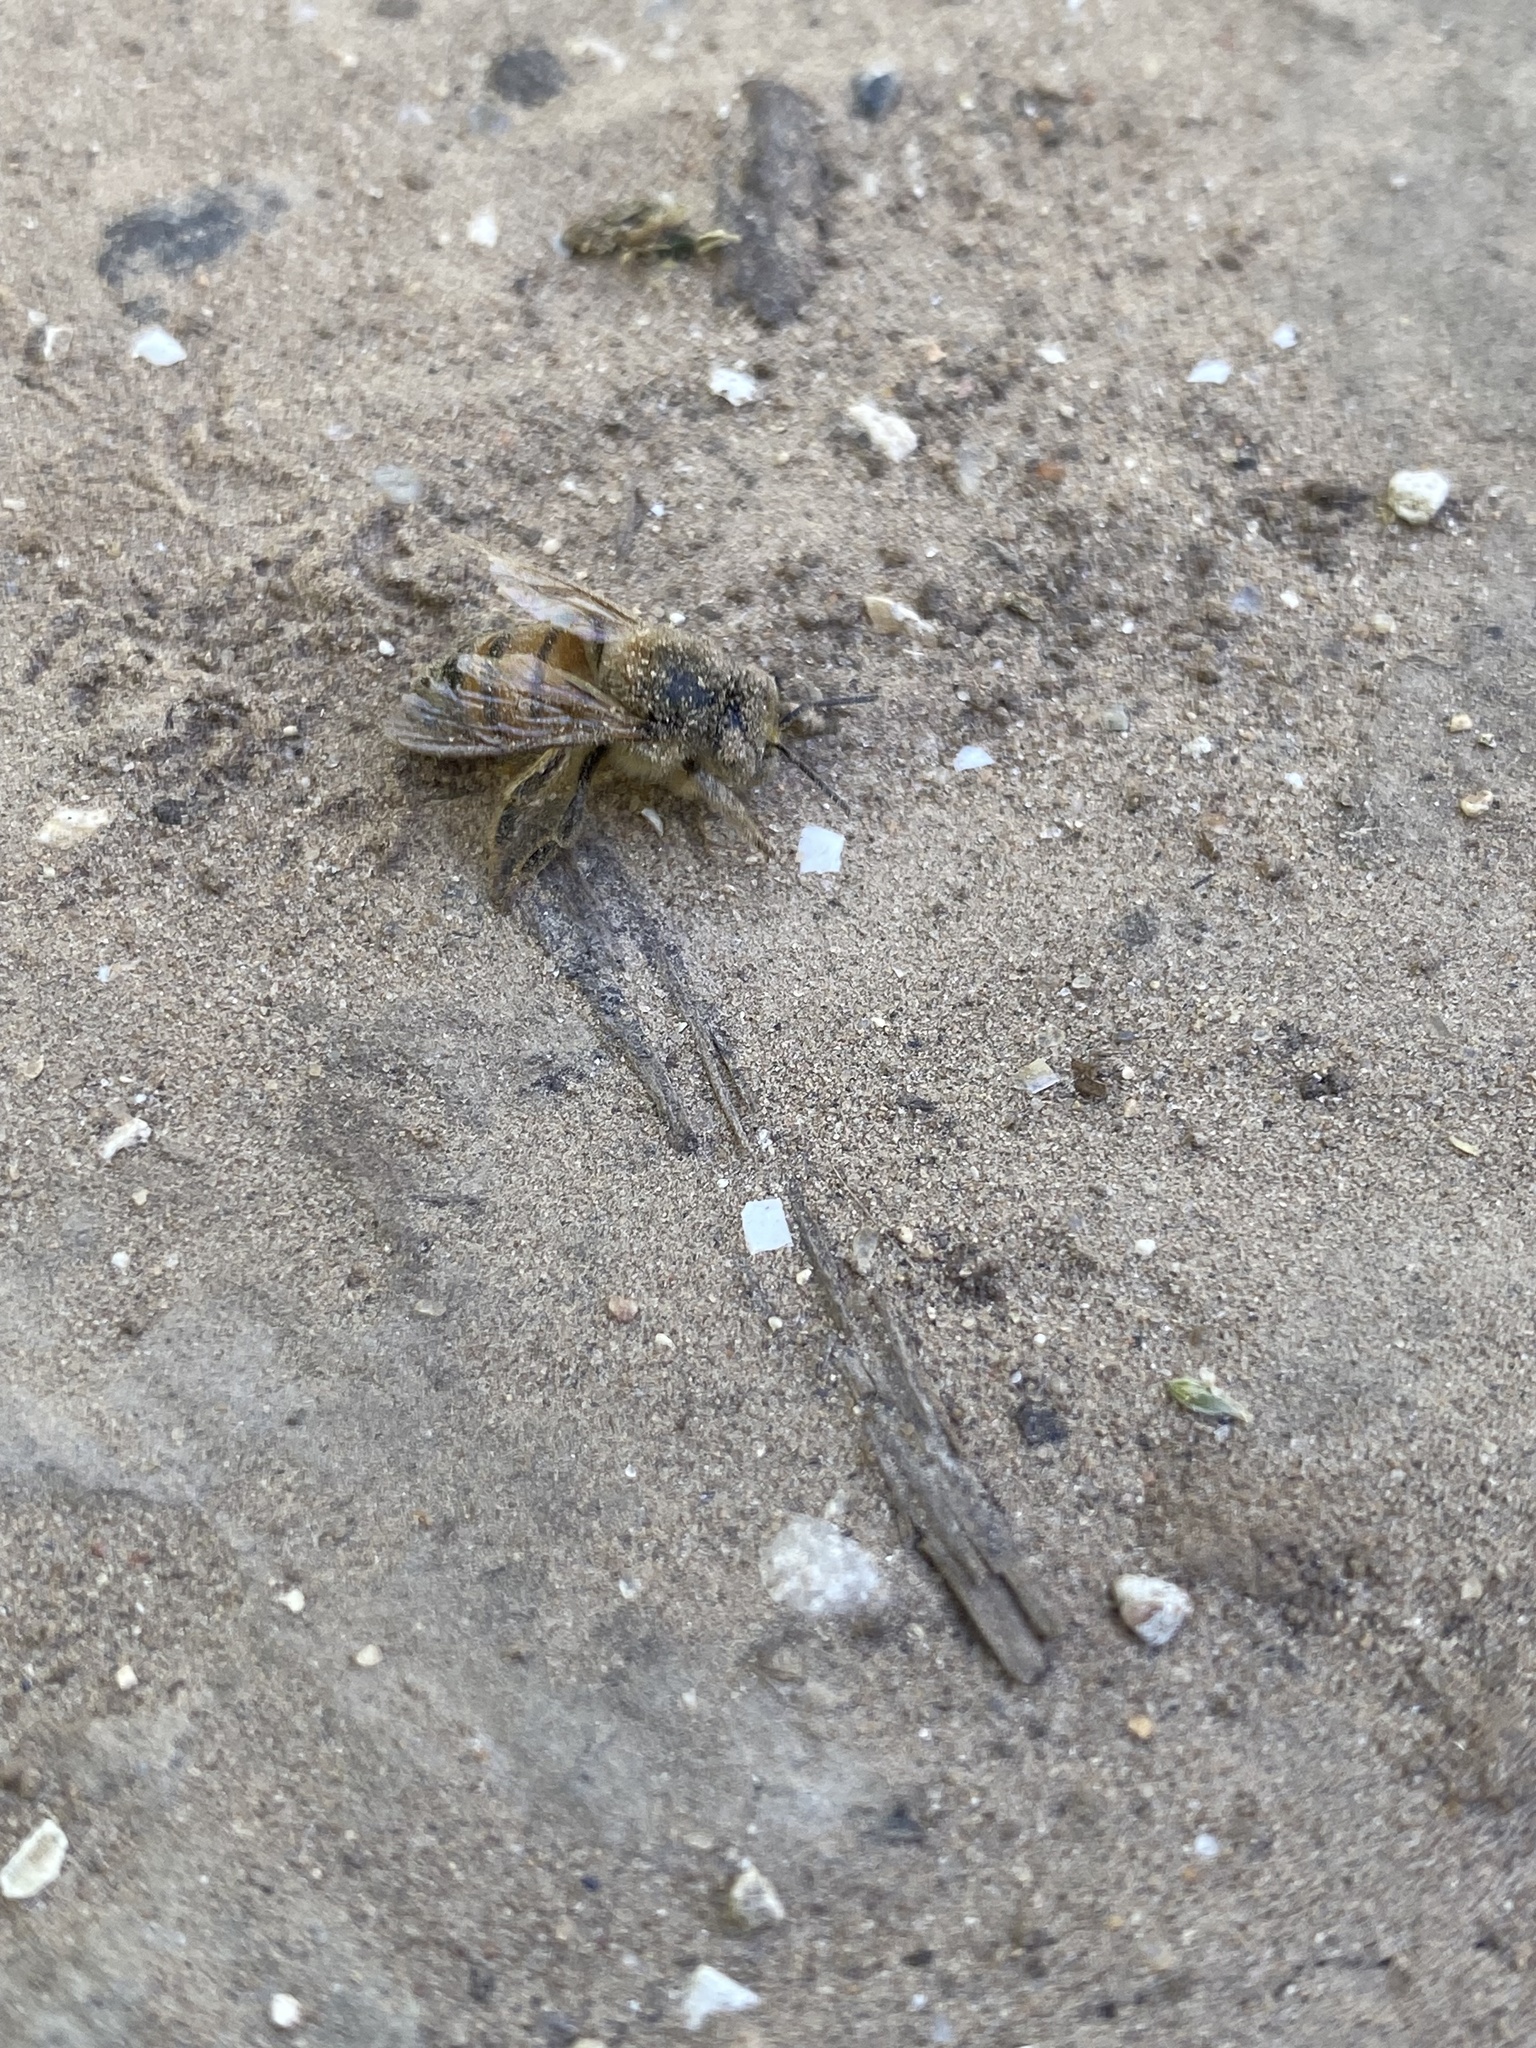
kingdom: Animalia
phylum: Arthropoda
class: Insecta
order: Hymenoptera
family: Apidae
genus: Apis
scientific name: Apis mellifera
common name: Honey bee
